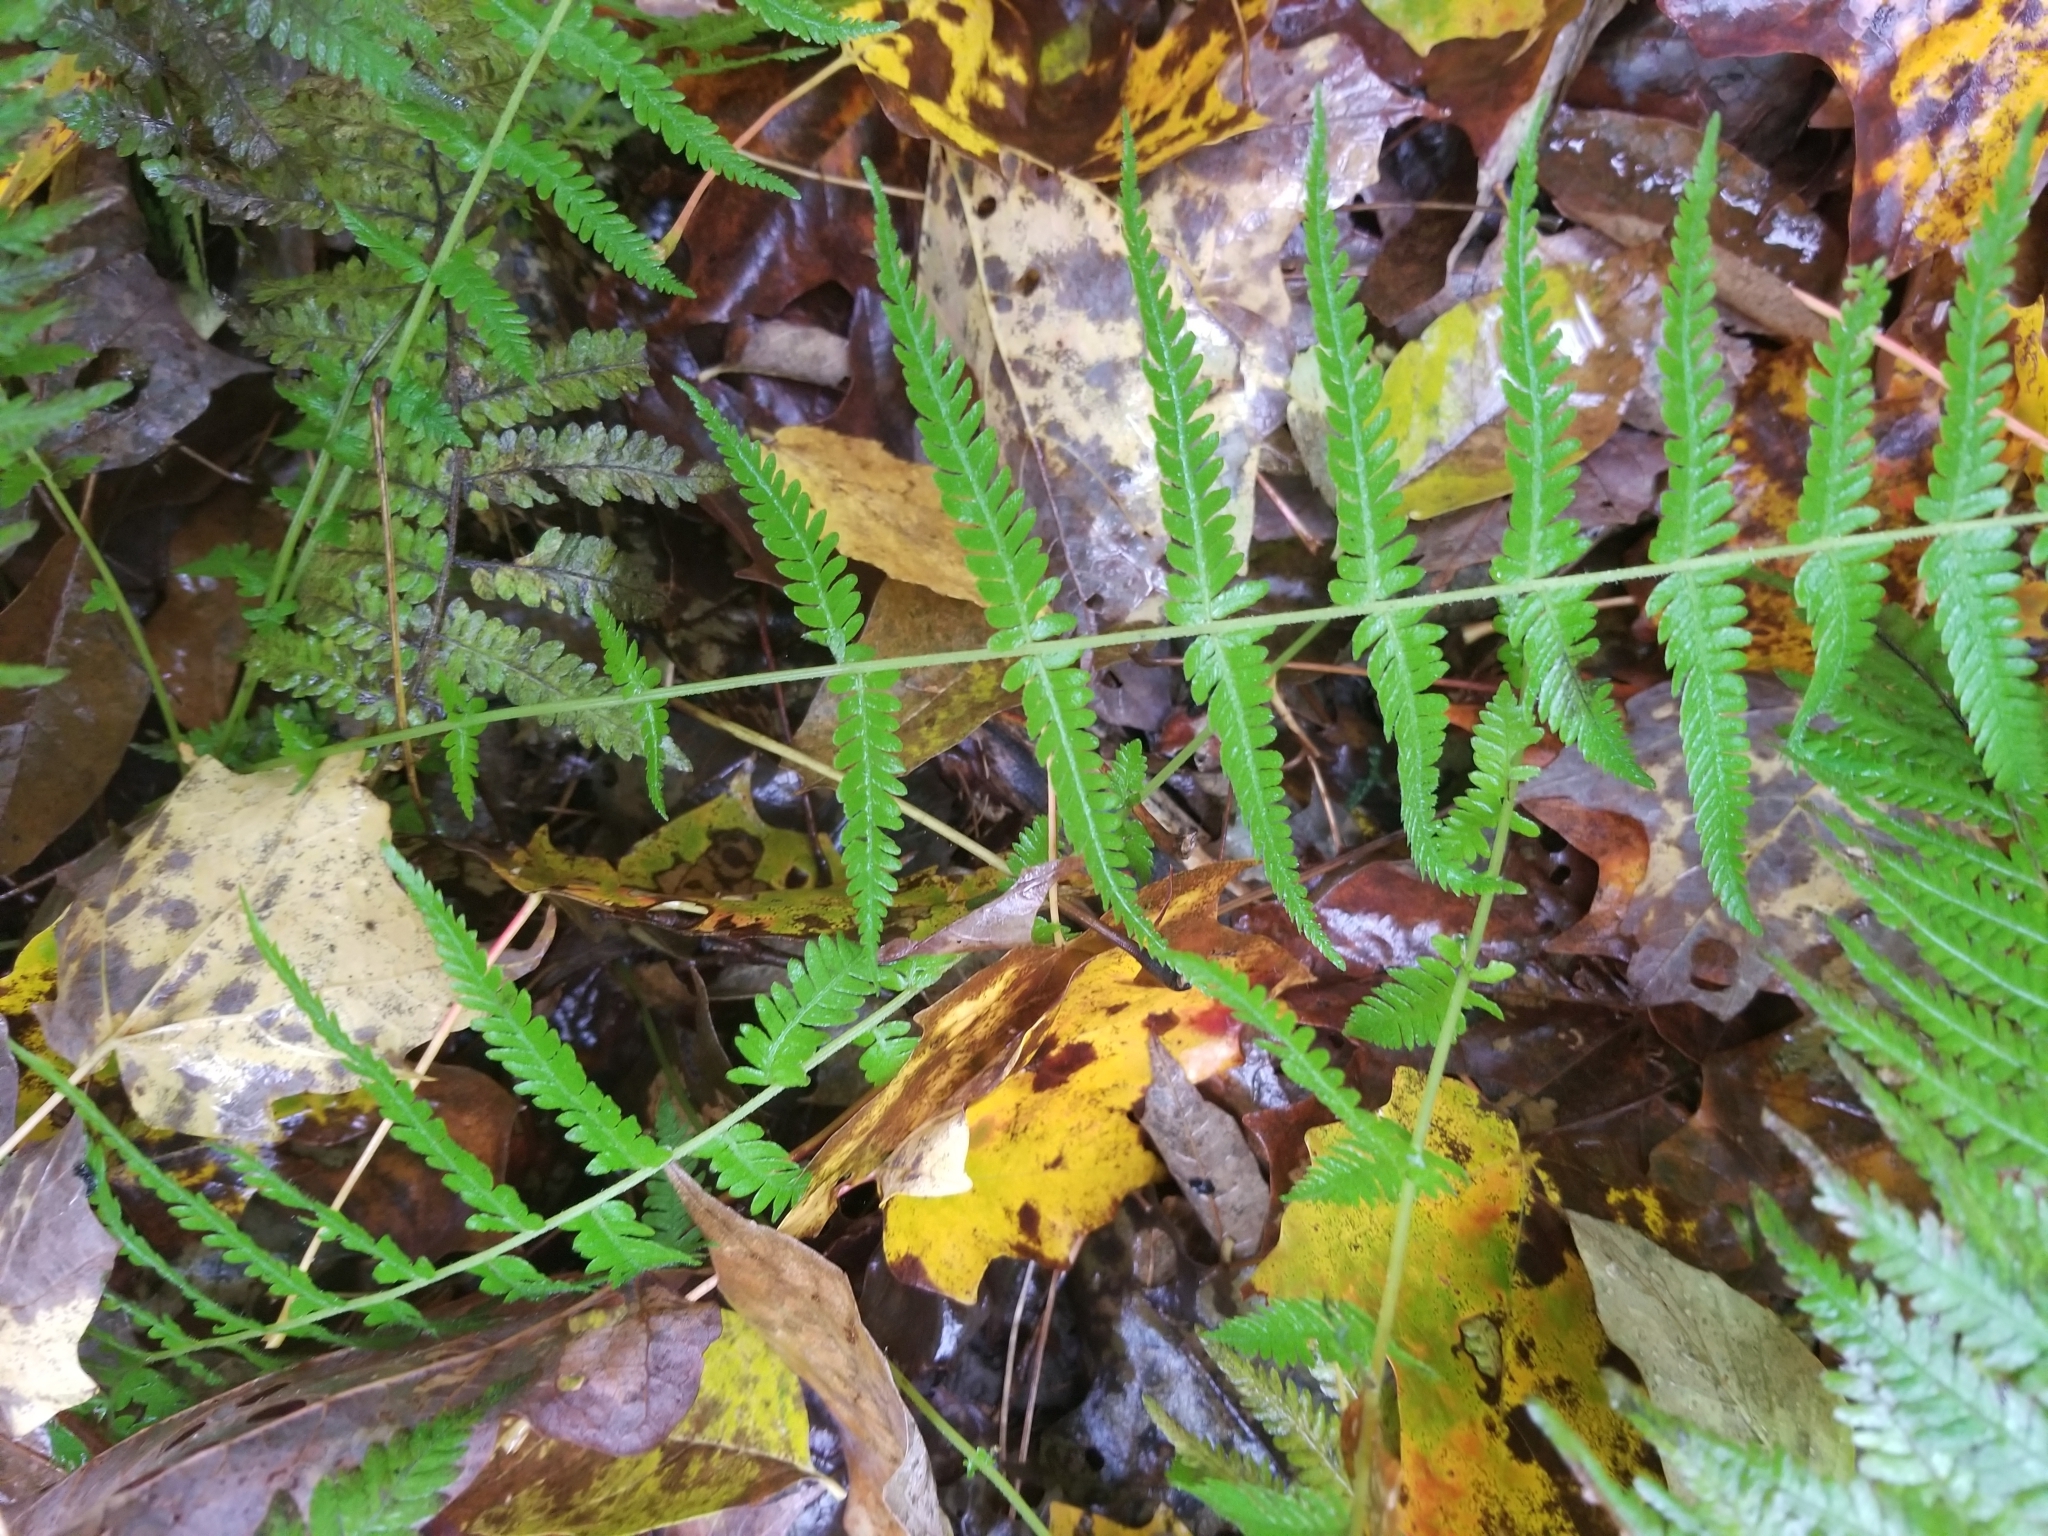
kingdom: Plantae
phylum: Tracheophyta
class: Polypodiopsida
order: Polypodiales
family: Thelypteridaceae
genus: Amauropelta
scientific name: Amauropelta noveboracensis
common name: New york fern
